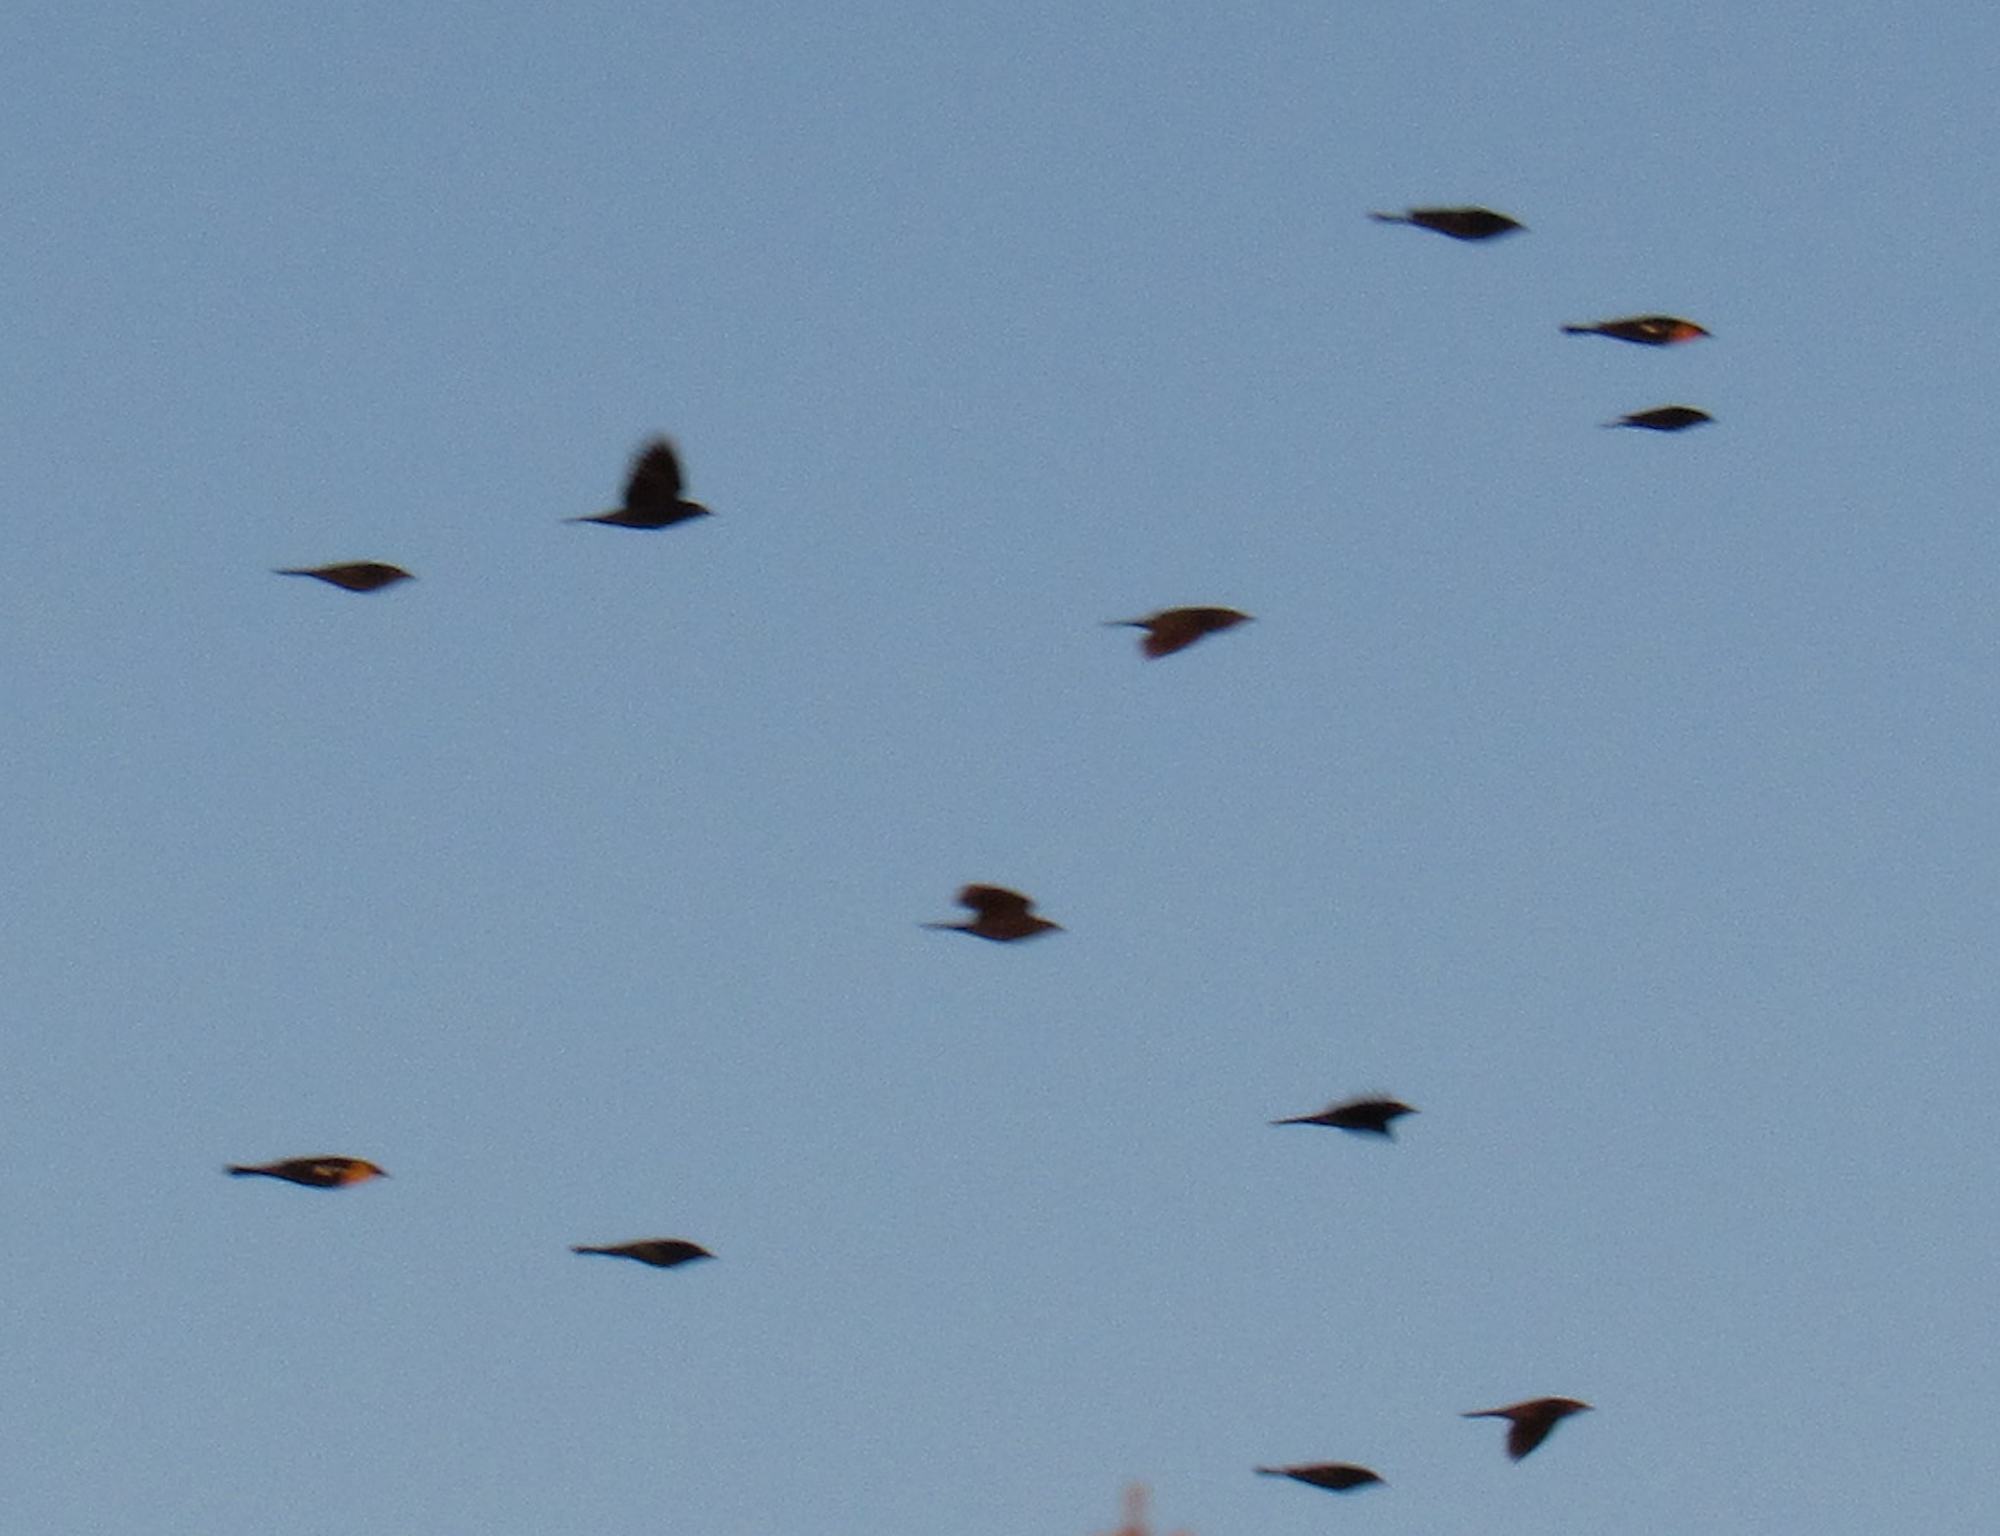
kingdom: Animalia
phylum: Chordata
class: Aves
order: Passeriformes
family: Icteridae
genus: Xanthocephalus
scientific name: Xanthocephalus xanthocephalus
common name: Yellow-headed blackbird
